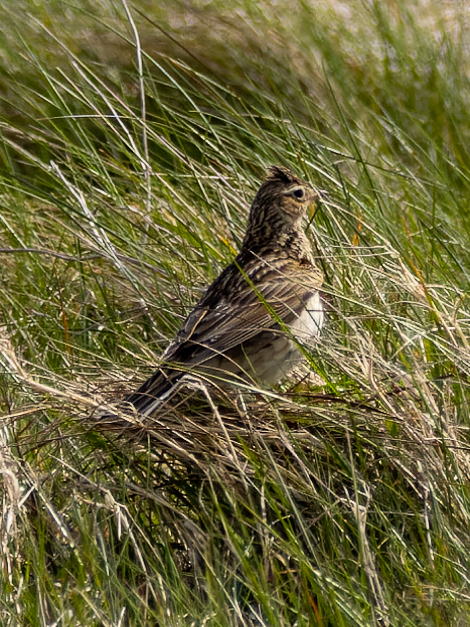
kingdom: Animalia
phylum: Chordata
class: Aves
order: Passeriformes
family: Alaudidae
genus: Alauda
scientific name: Alauda arvensis
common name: Eurasian skylark
